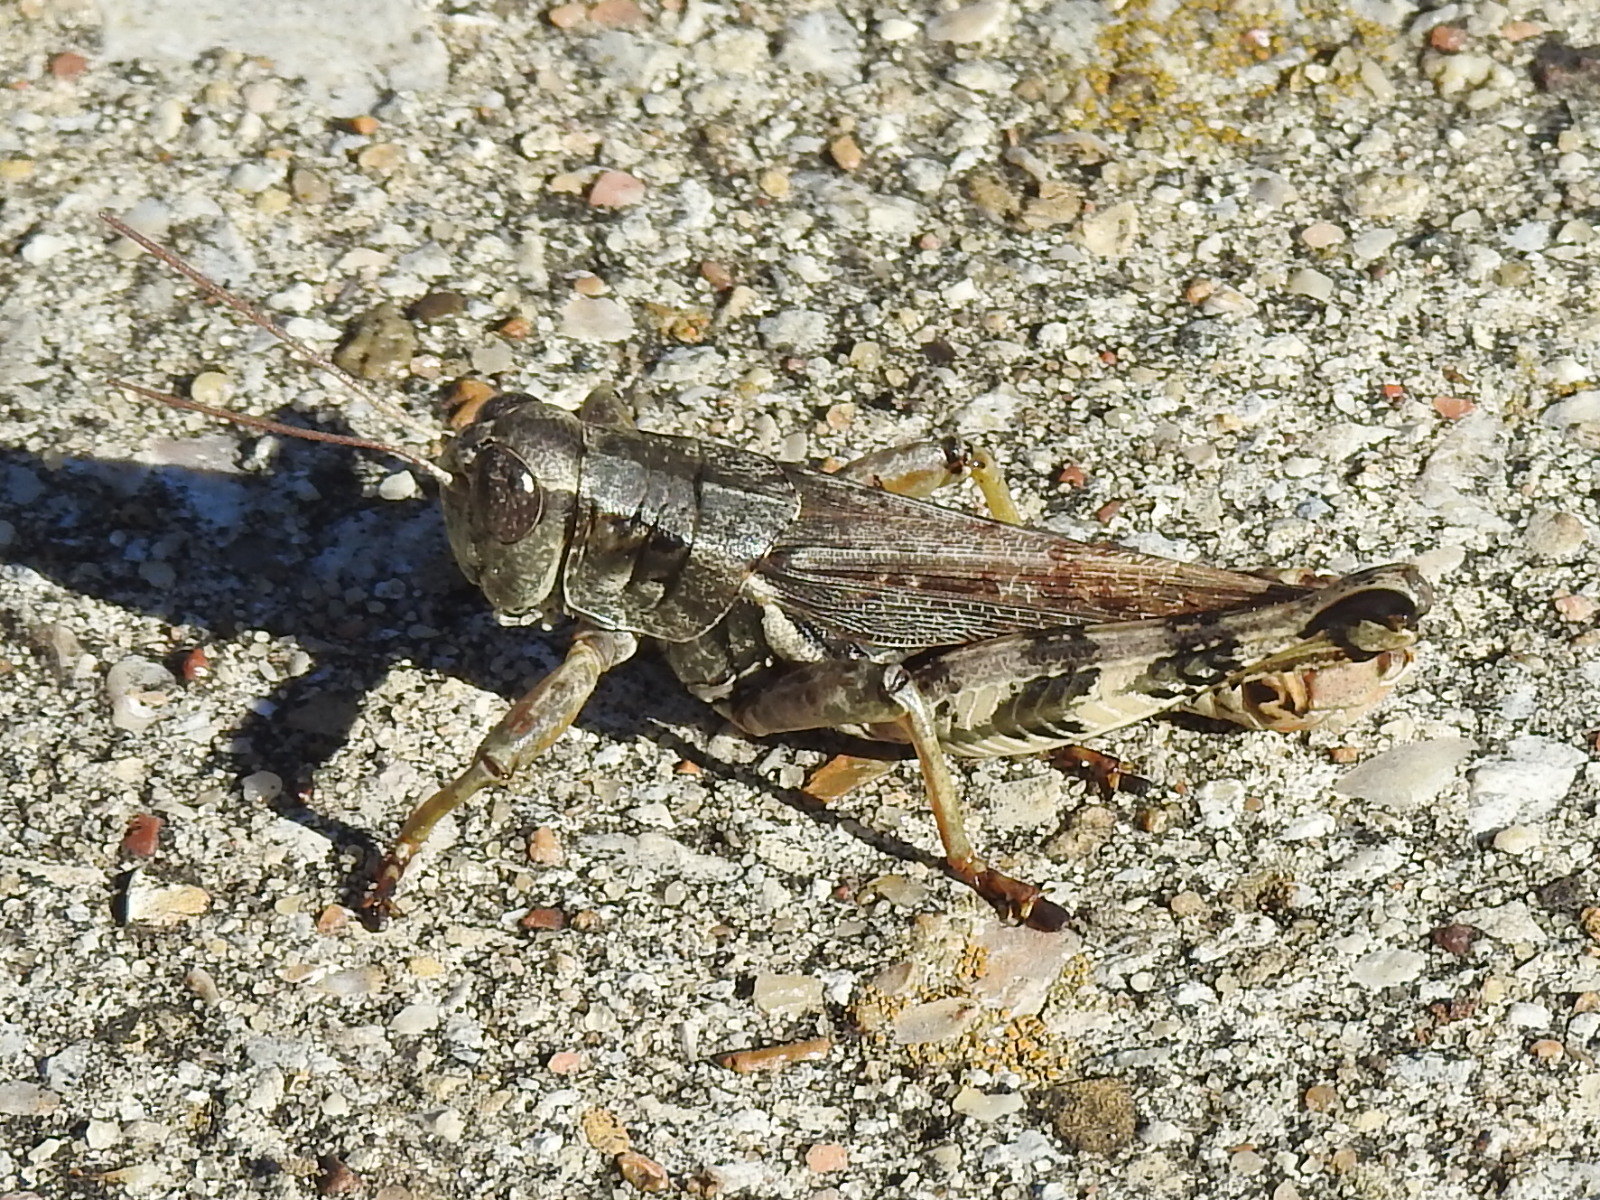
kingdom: Animalia
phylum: Arthropoda
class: Insecta
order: Orthoptera
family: Acrididae
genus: Melanoplus
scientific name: Melanoplus ponderosus
